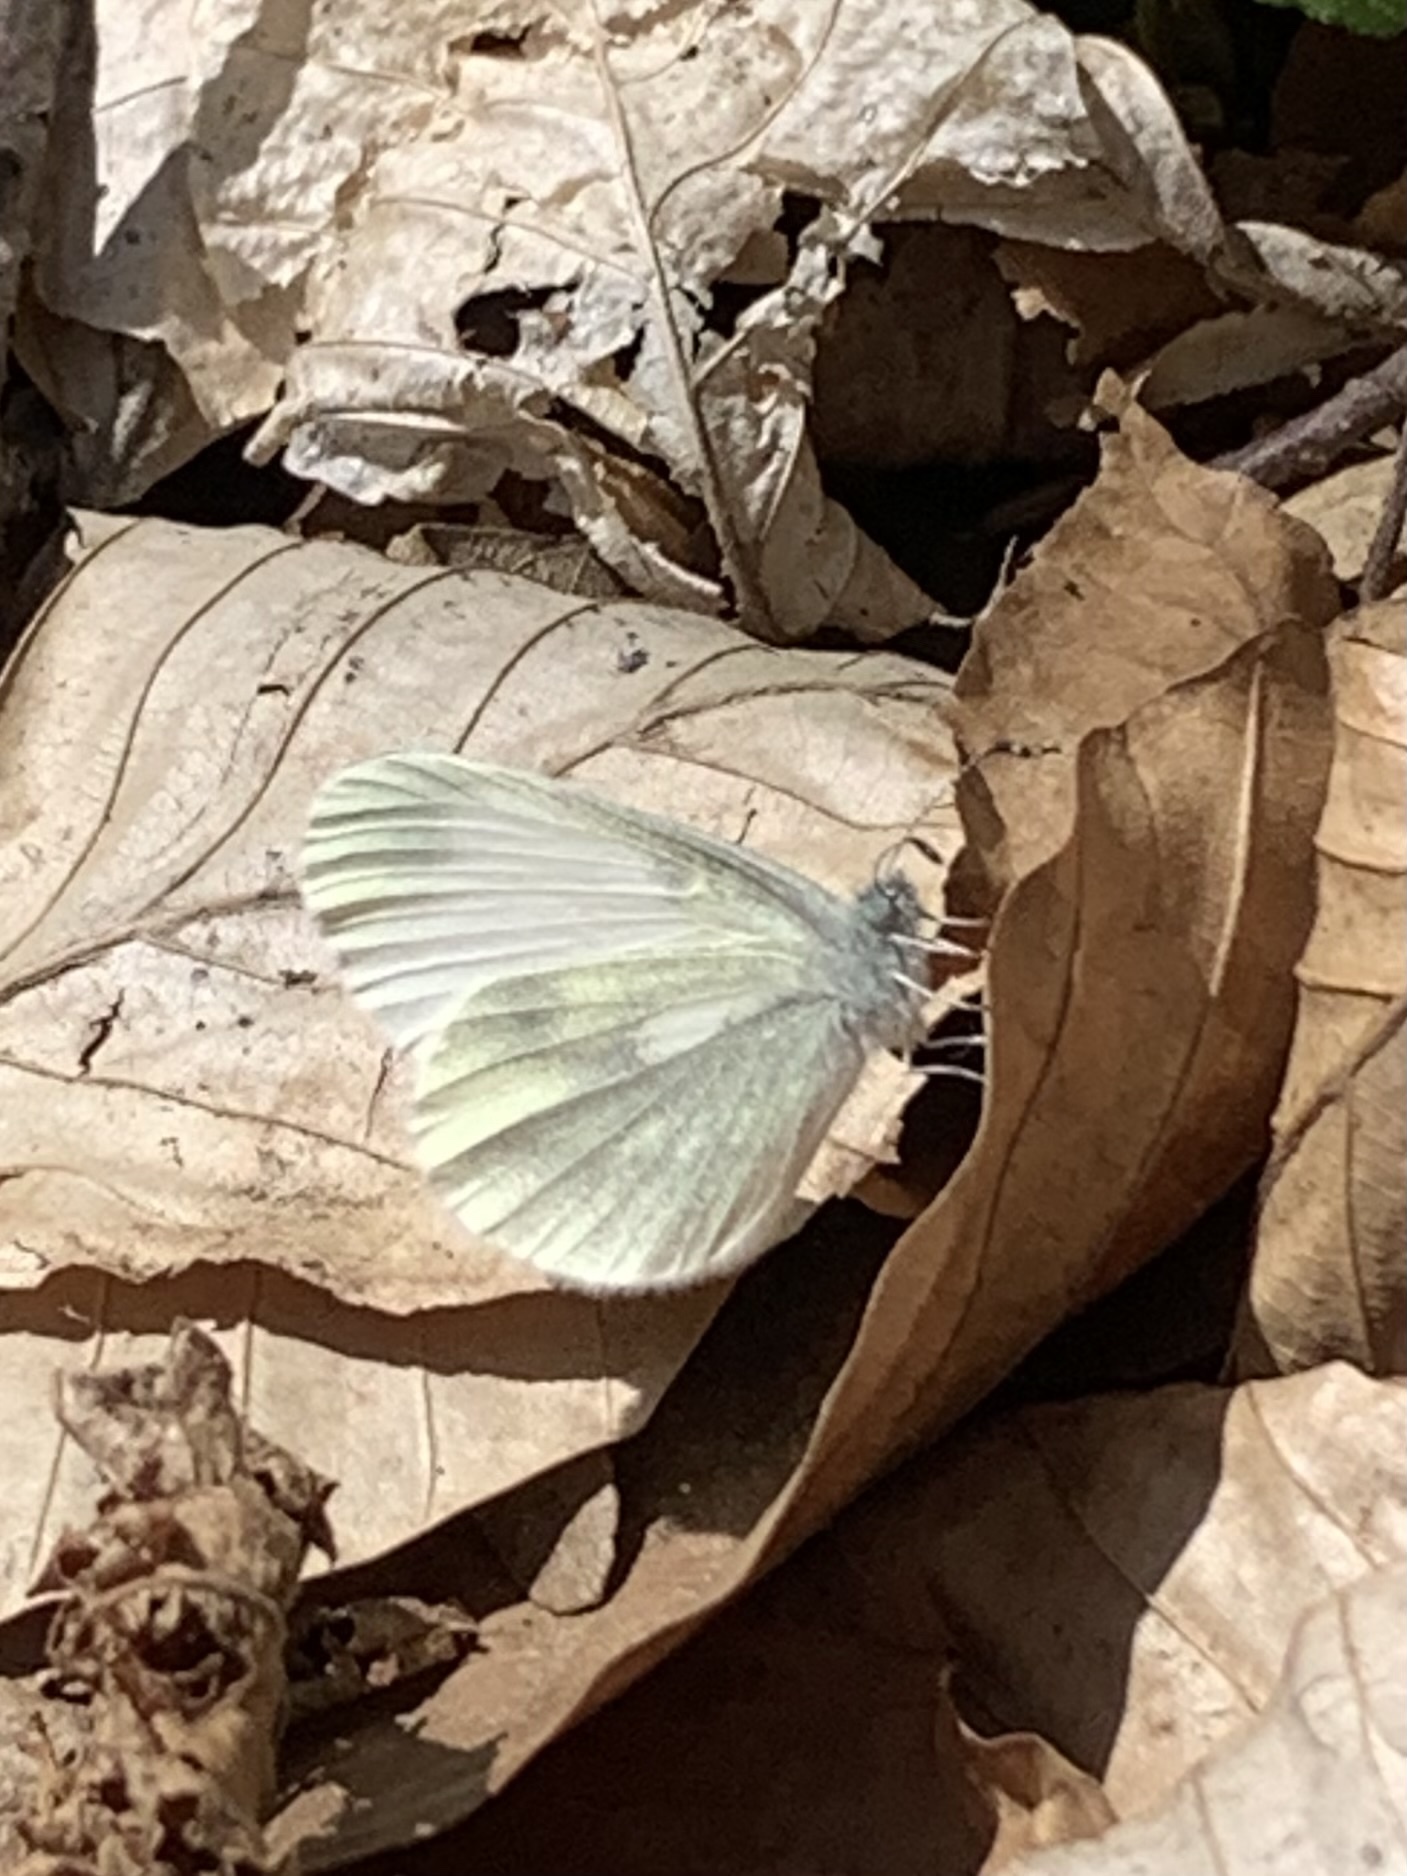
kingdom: Animalia
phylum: Arthropoda
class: Insecta
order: Lepidoptera
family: Pieridae
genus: Leptidea
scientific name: Leptidea sinapis
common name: Wood white
